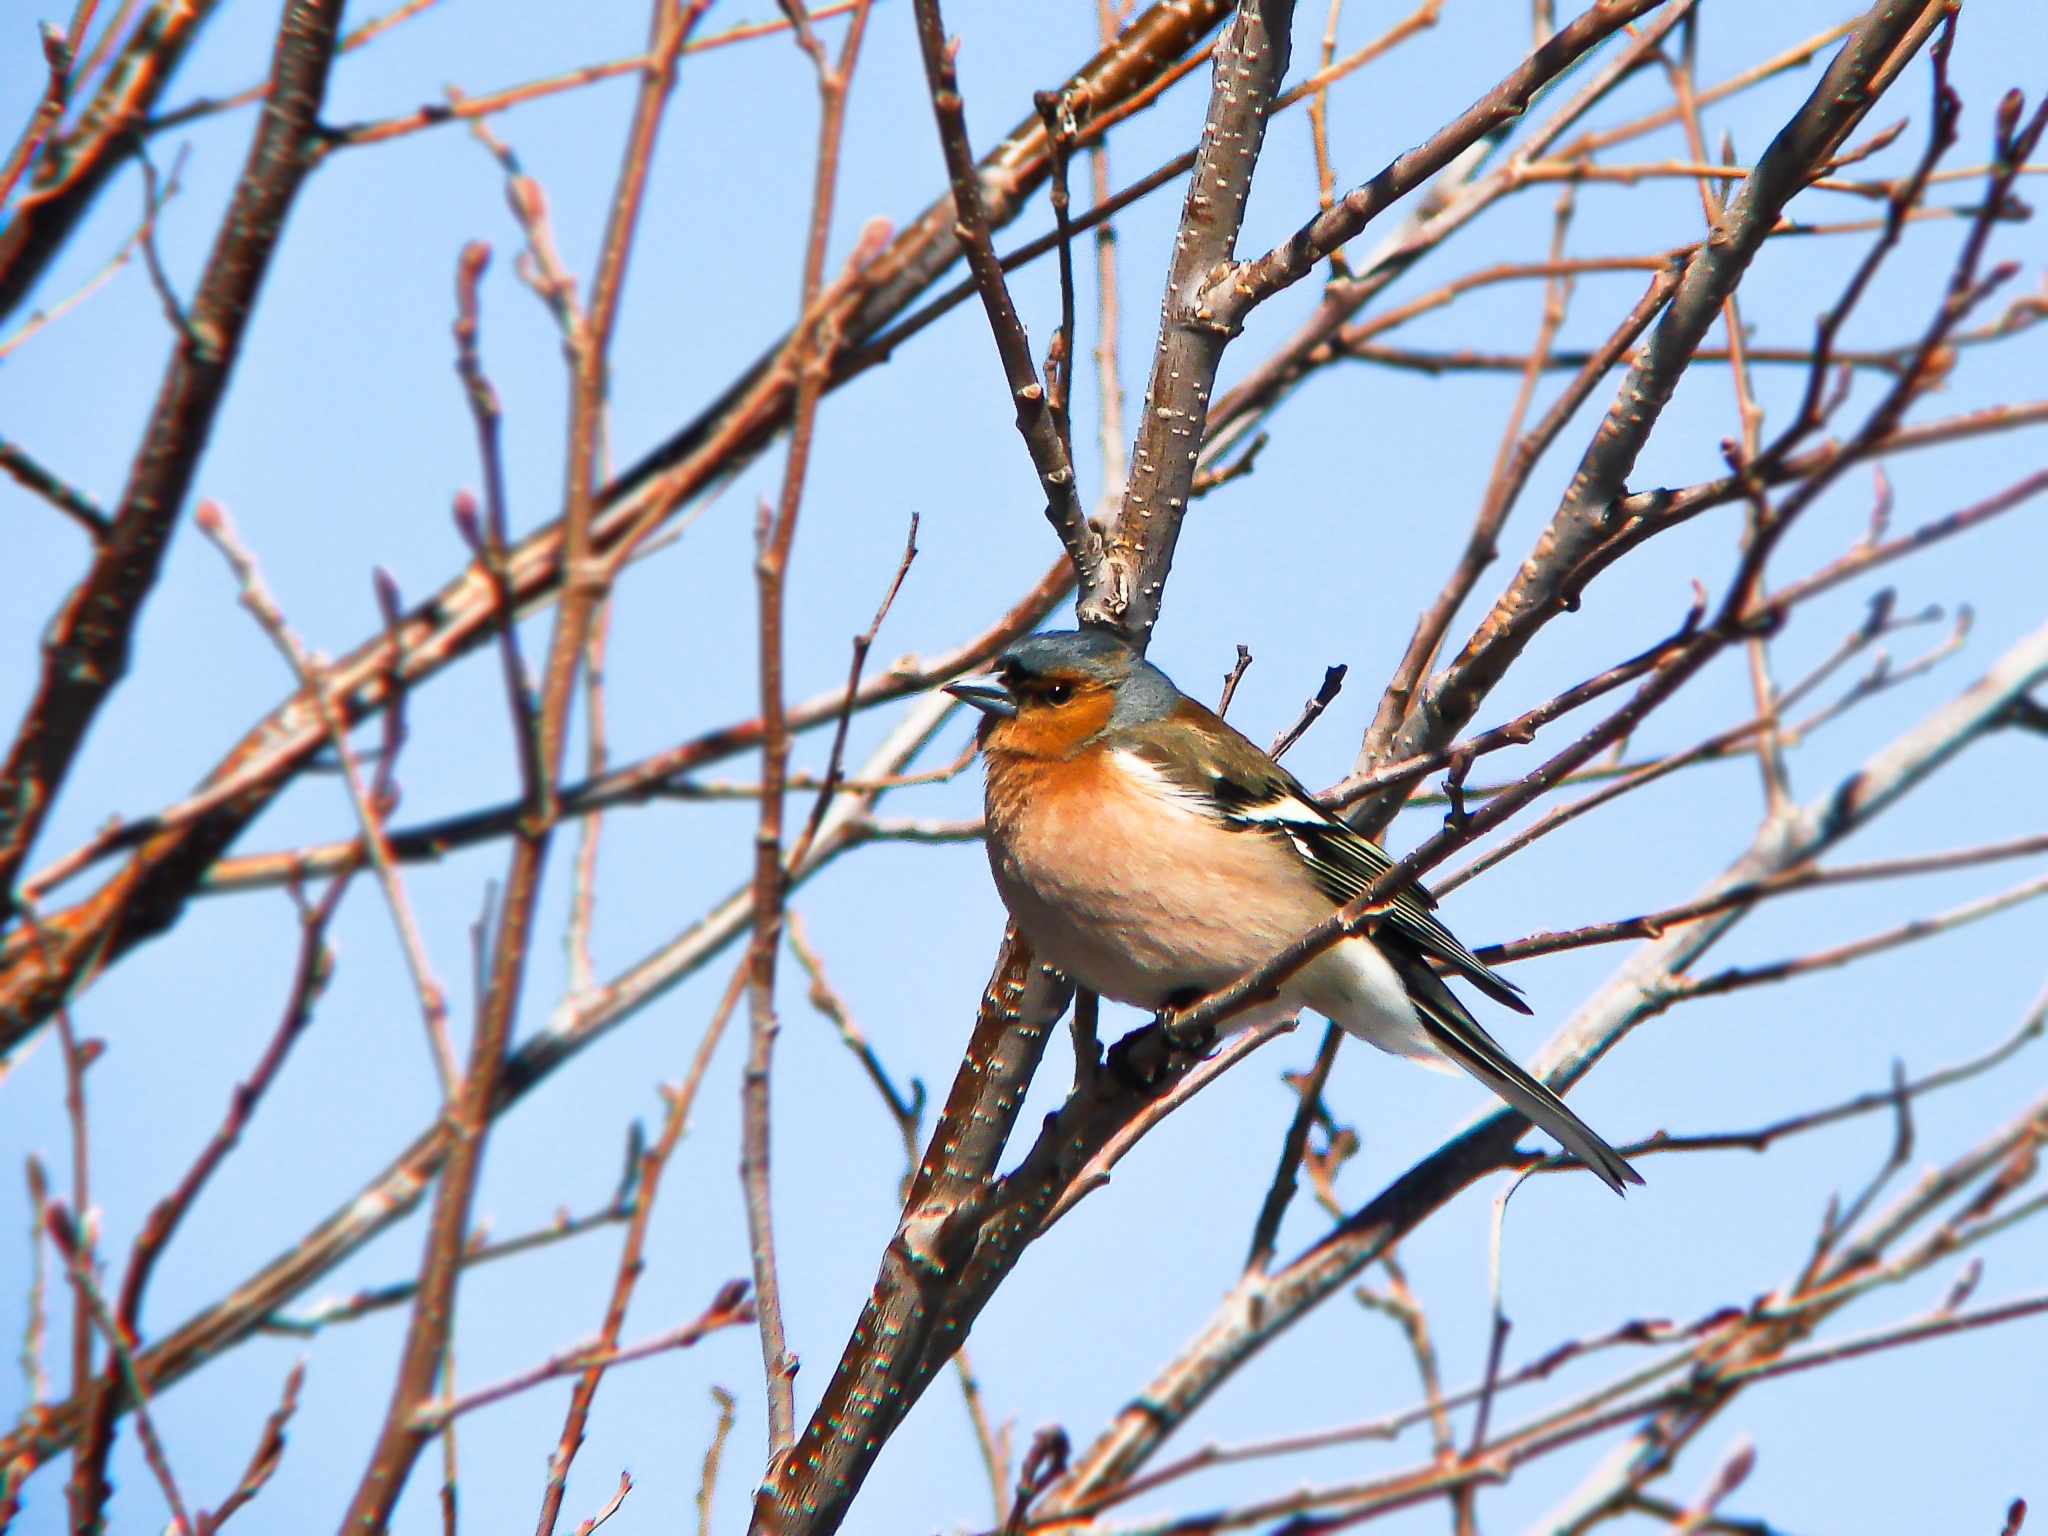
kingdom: Animalia
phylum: Chordata
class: Aves
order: Passeriformes
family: Fringillidae
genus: Fringilla
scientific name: Fringilla coelebs
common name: Common chaffinch
